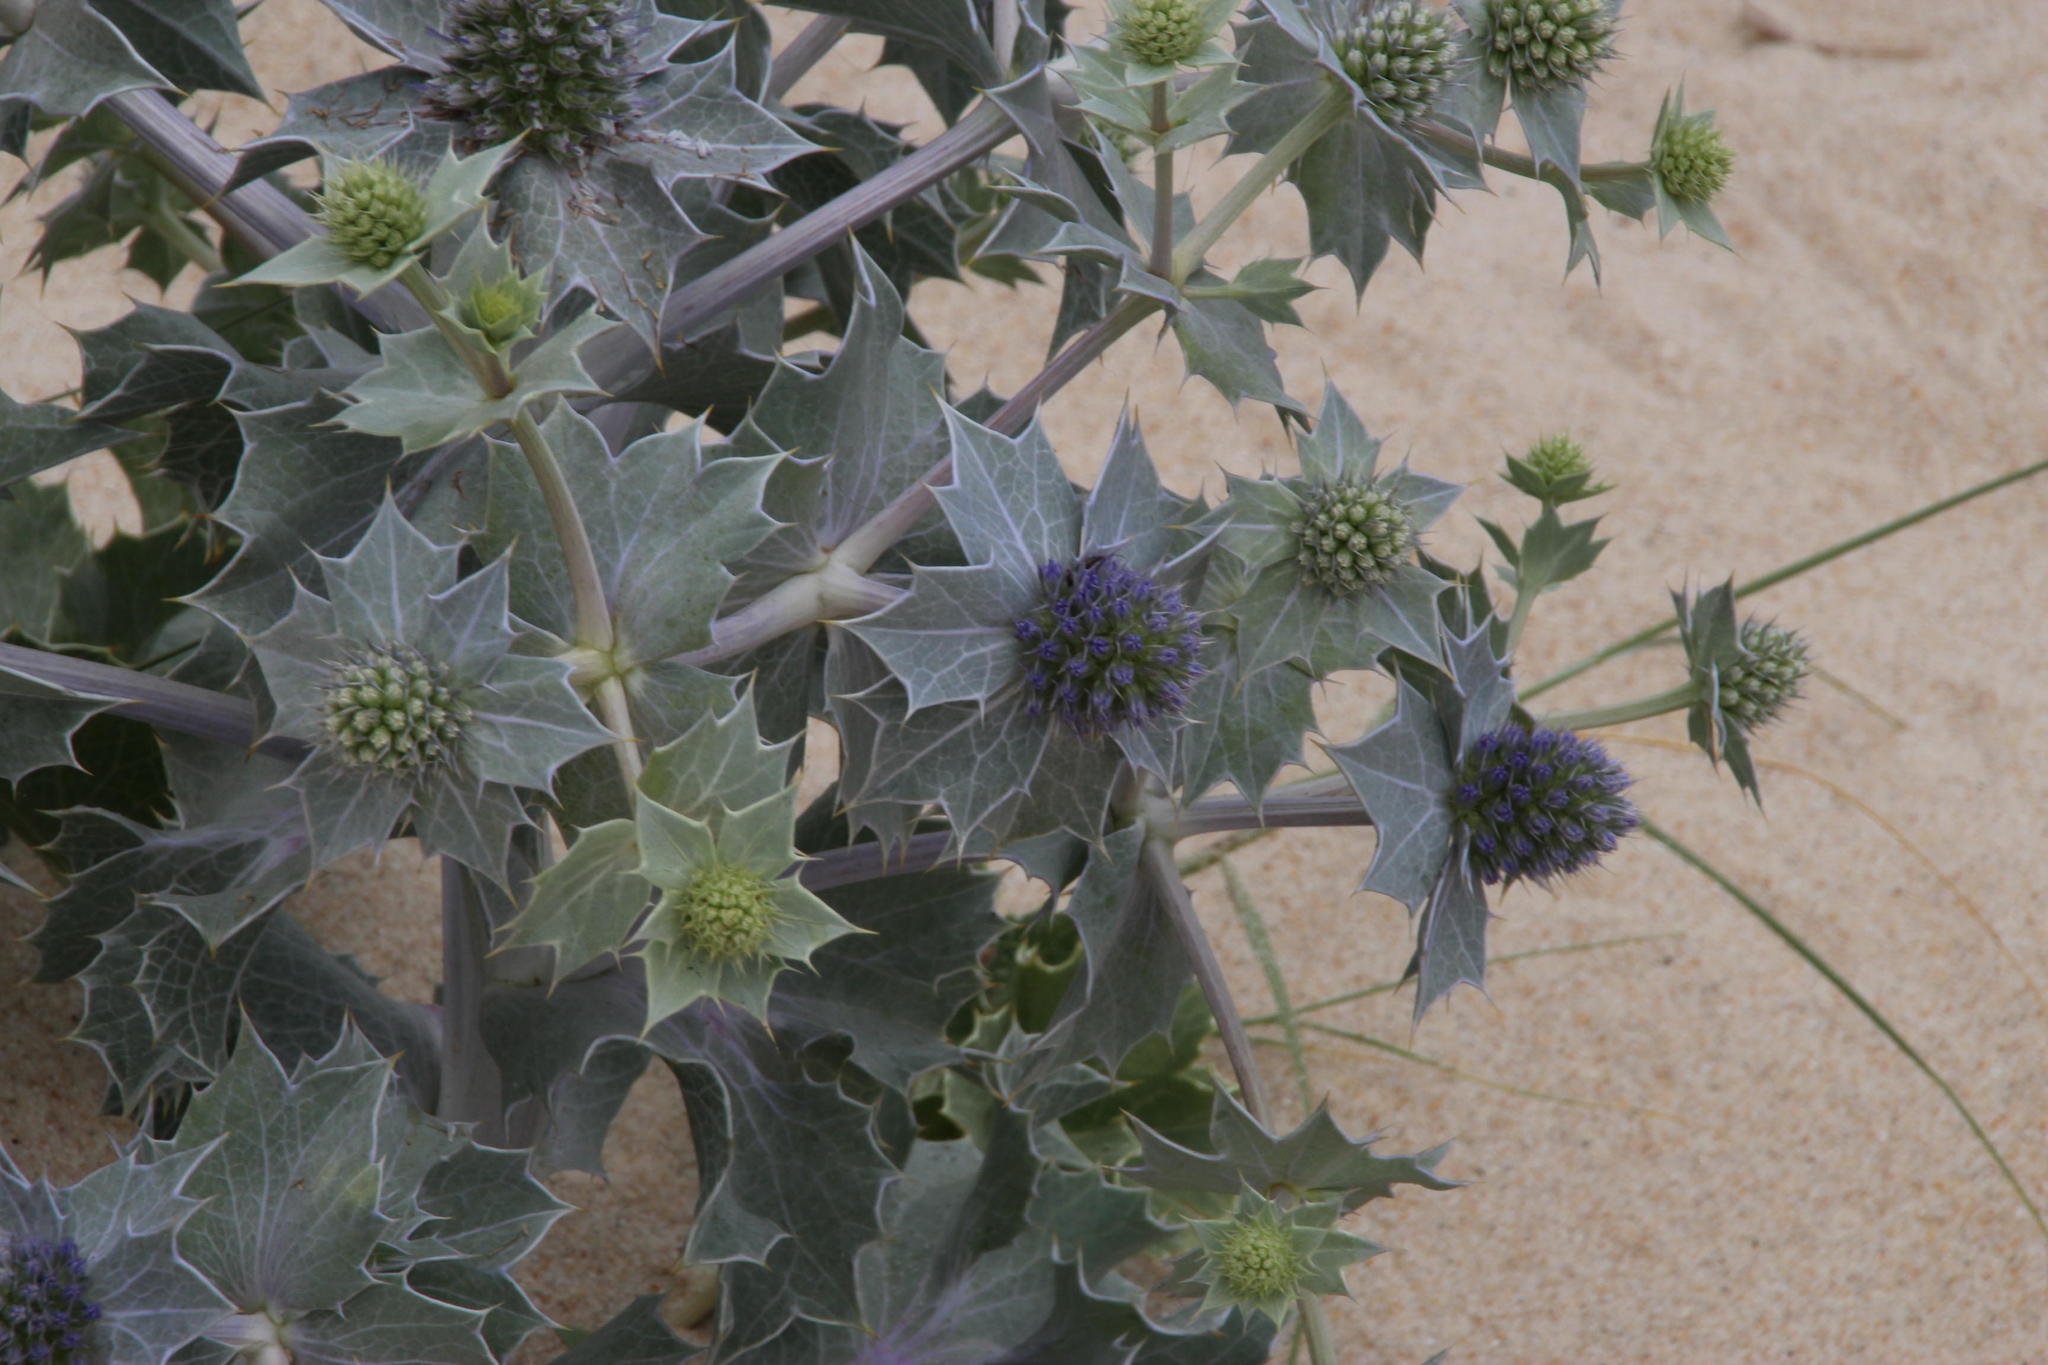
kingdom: Plantae
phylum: Tracheophyta
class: Magnoliopsida
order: Apiales
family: Apiaceae
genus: Eryngium
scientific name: Eryngium maritimum
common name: Sea-holly
